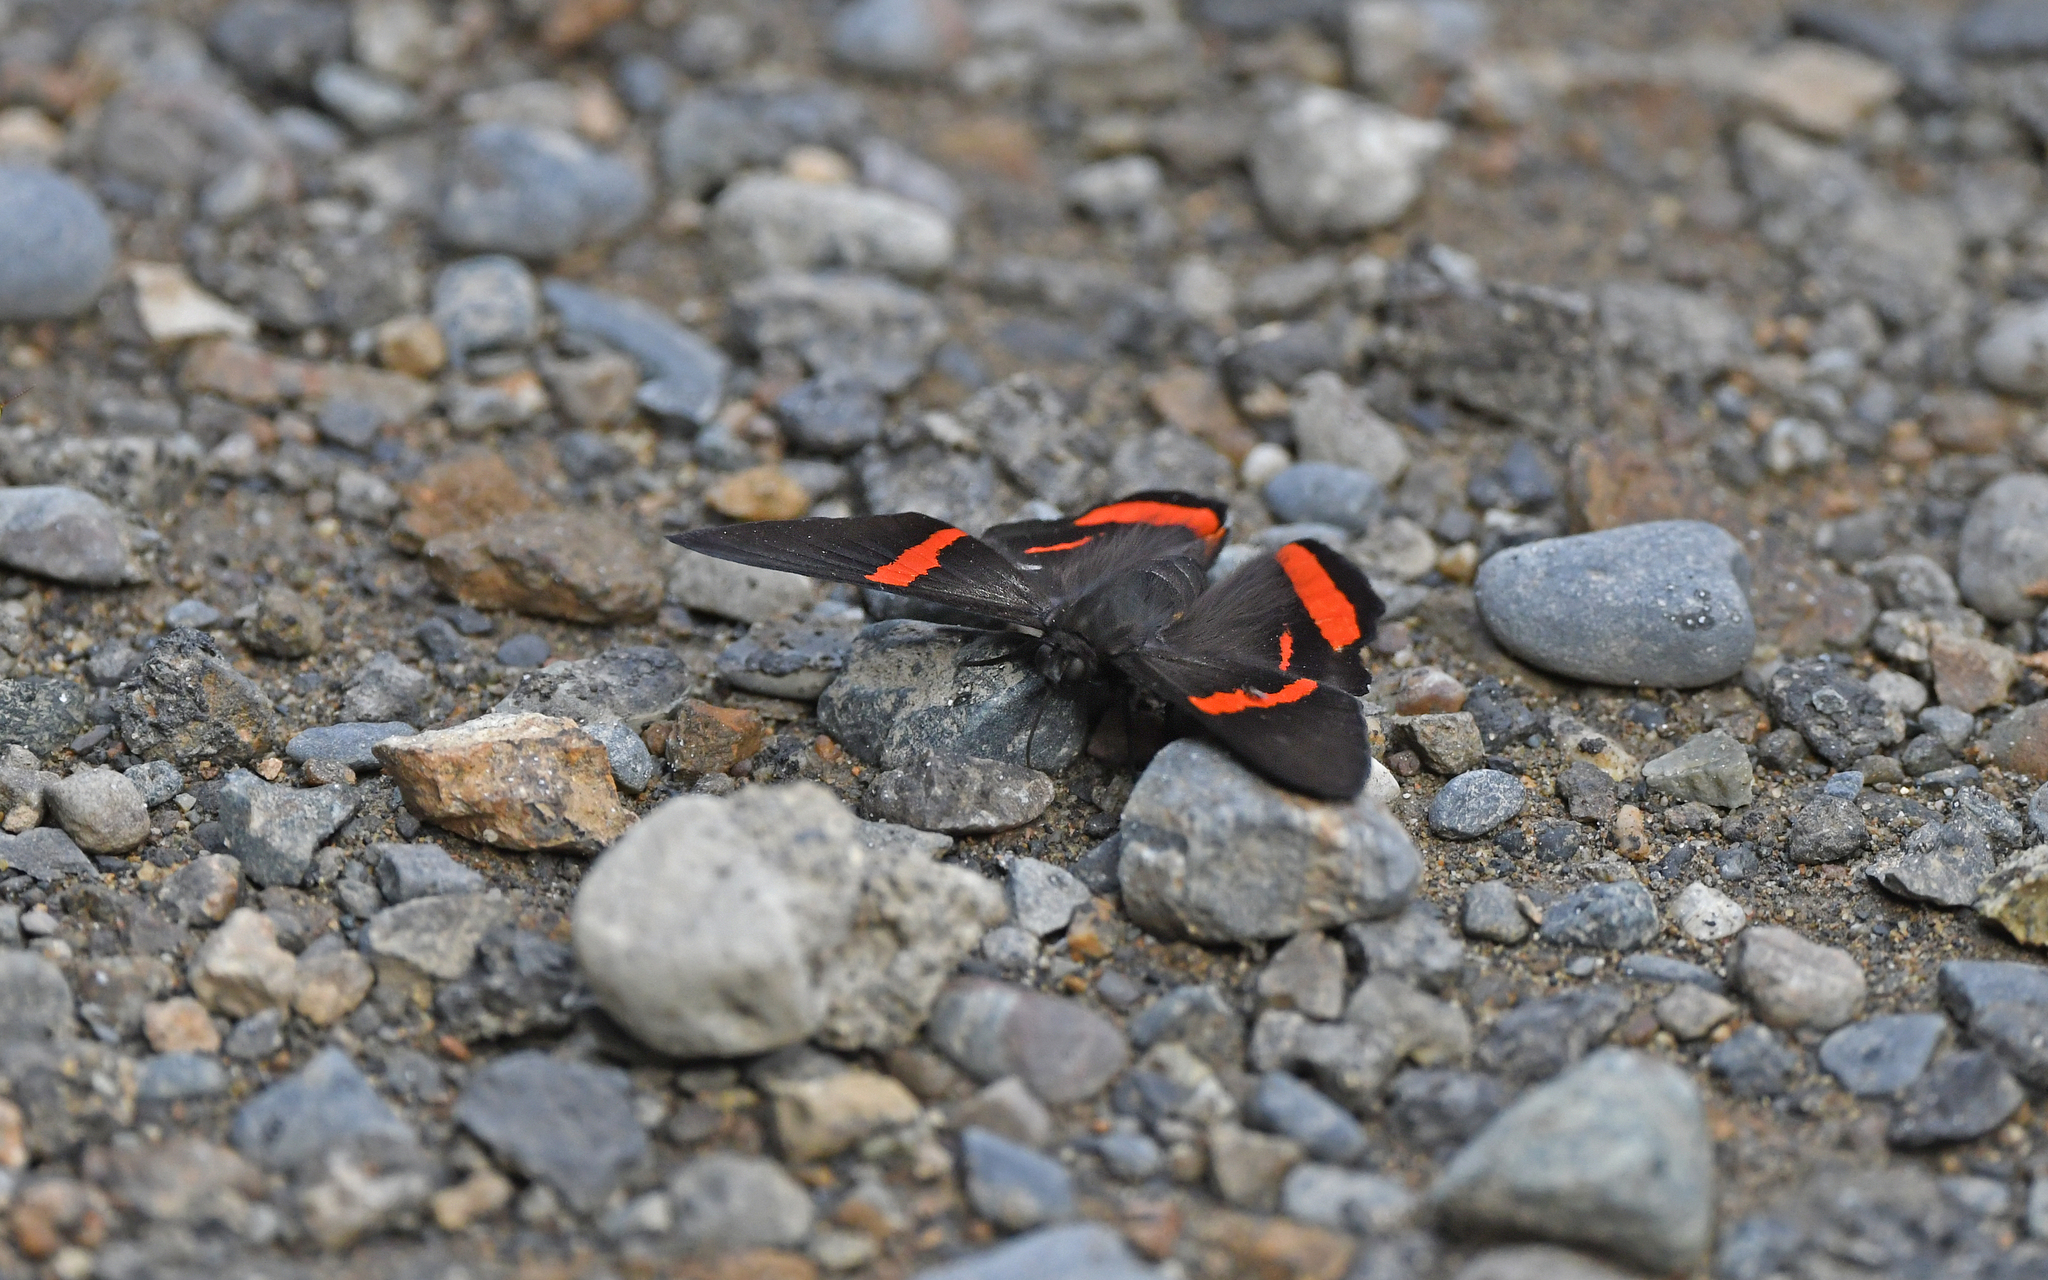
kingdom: Animalia
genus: Ancyluris
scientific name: Ancyluris mira
